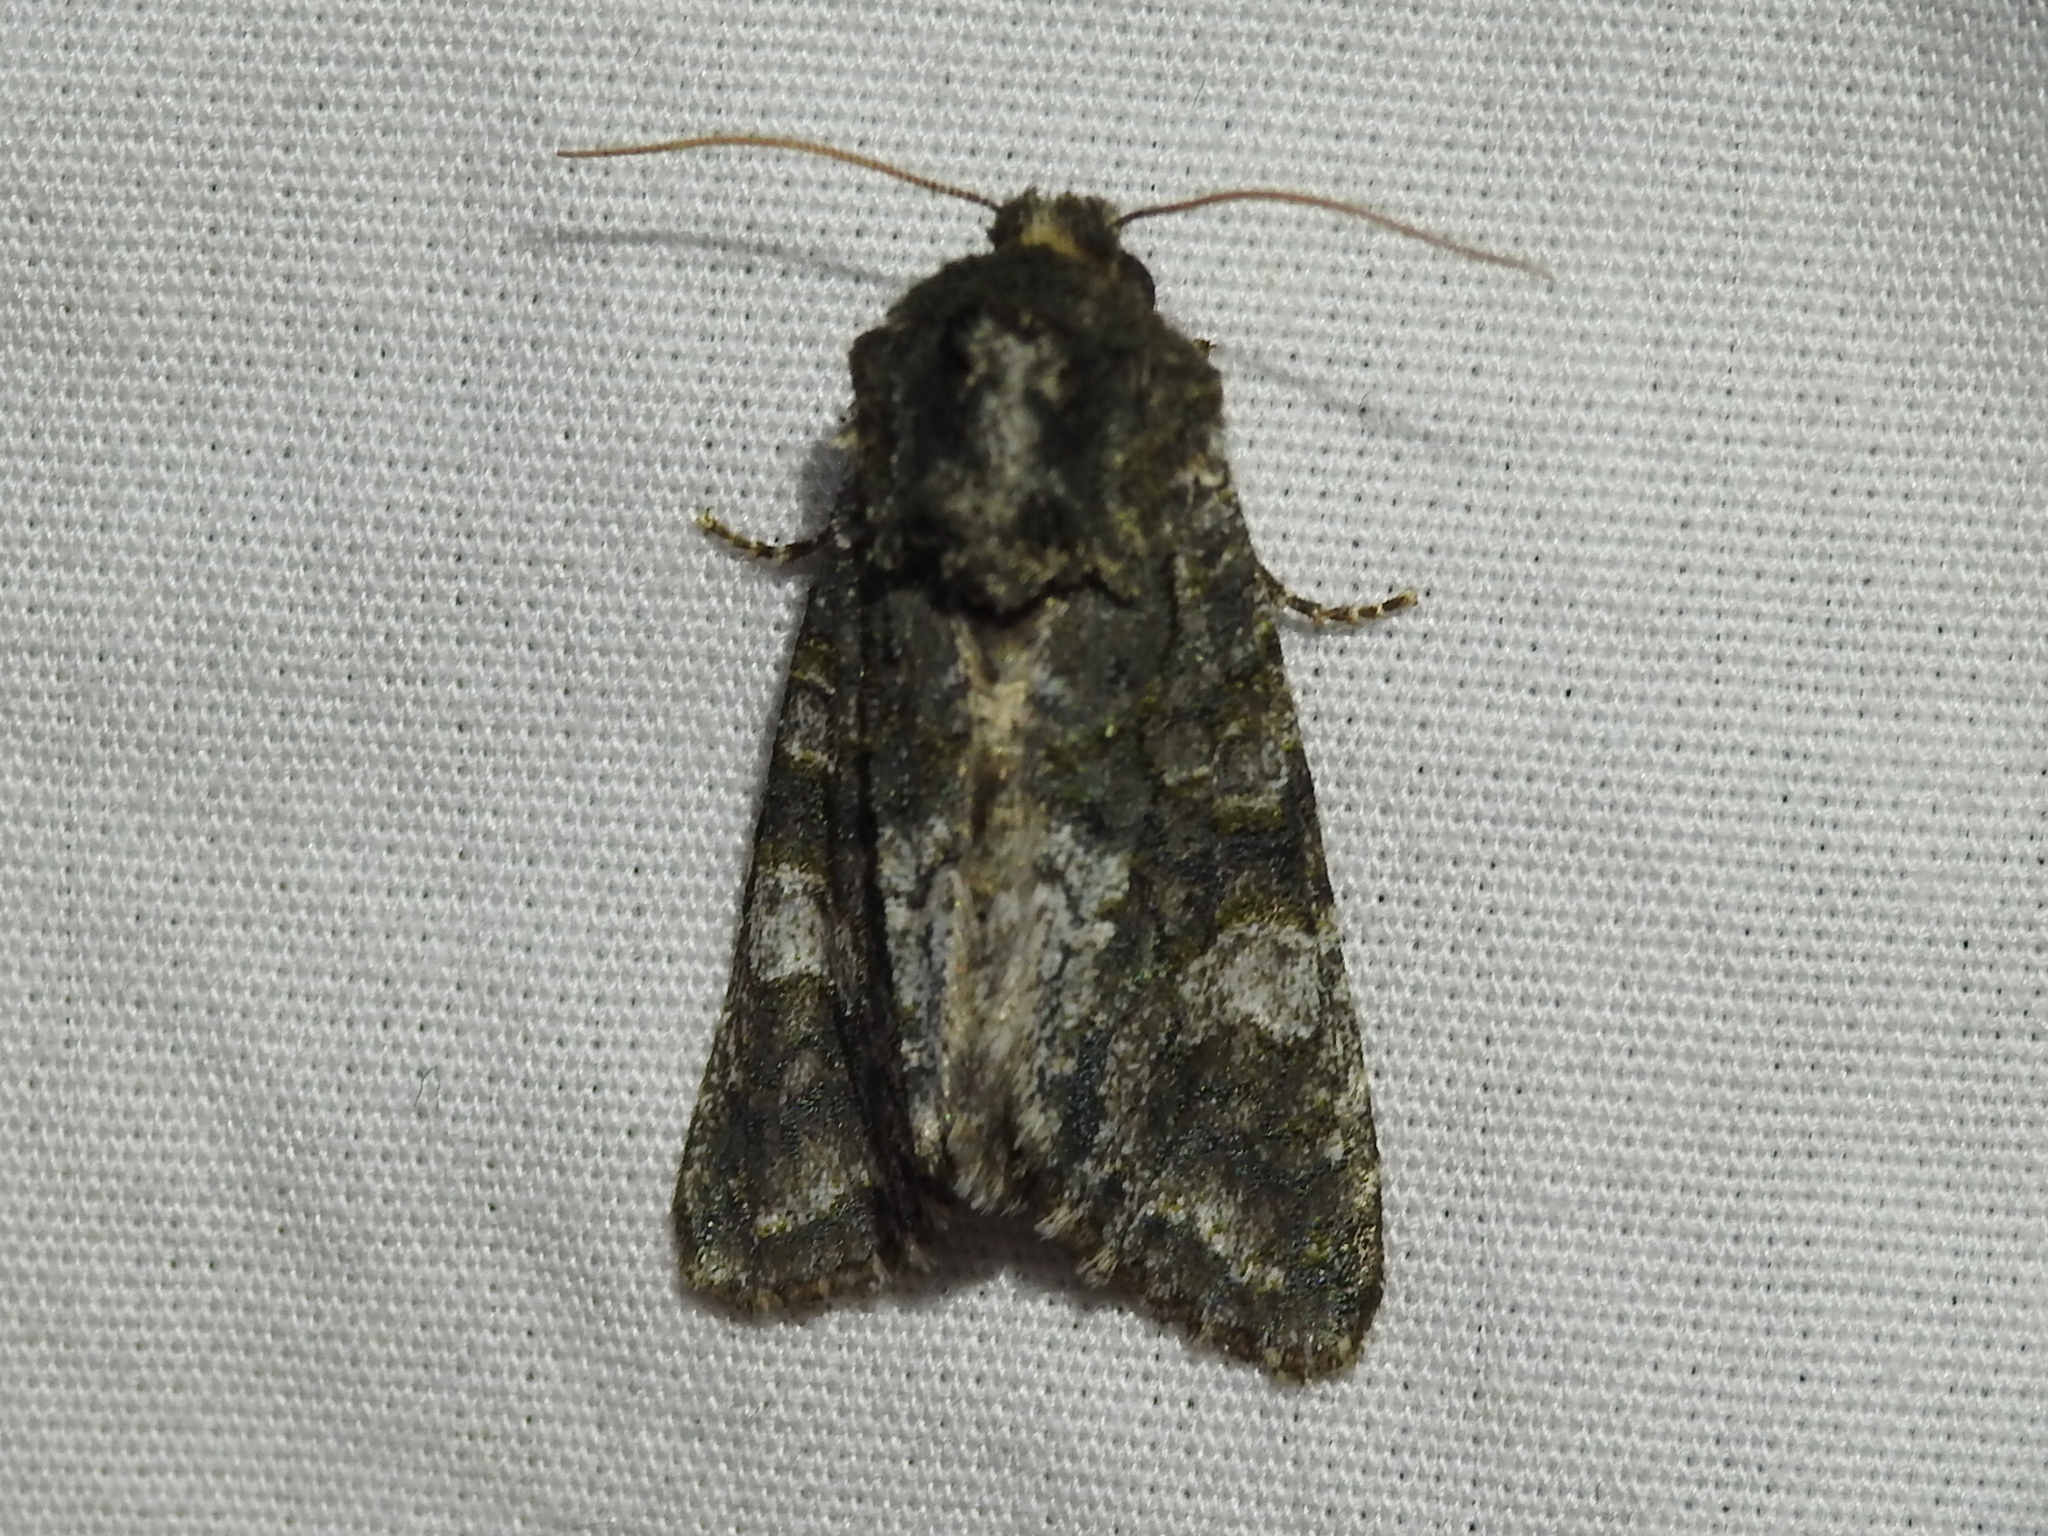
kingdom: Animalia
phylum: Arthropoda
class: Insecta
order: Lepidoptera
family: Noctuidae
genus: Psaphida
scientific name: Psaphida grotei
